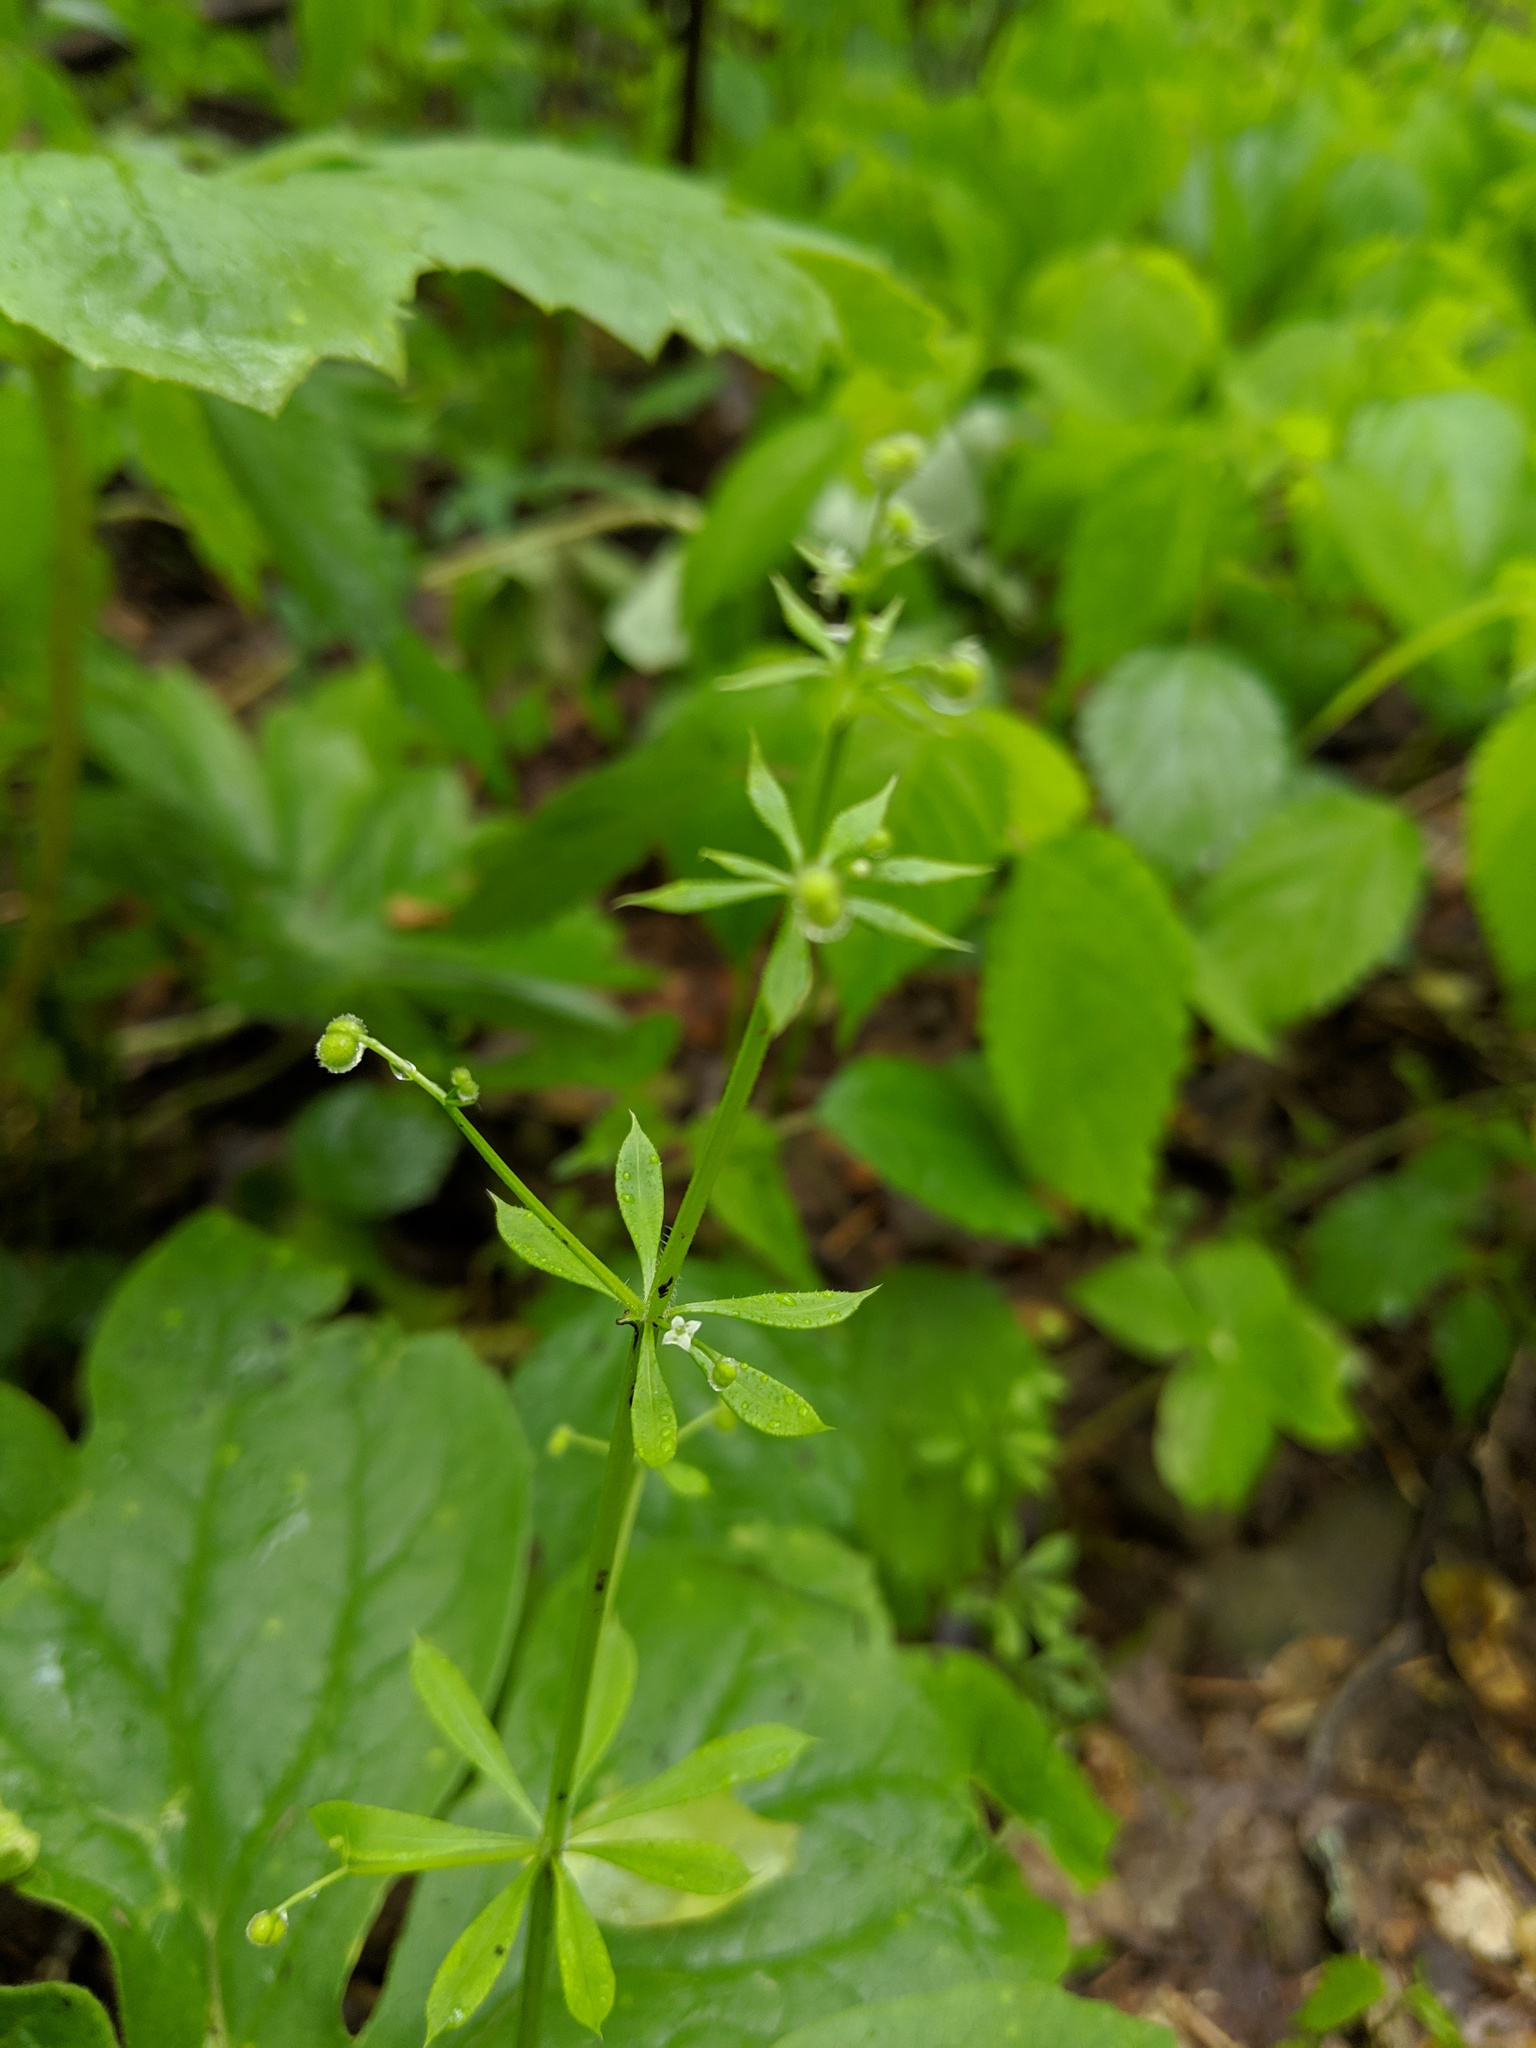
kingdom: Plantae
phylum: Tracheophyta
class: Magnoliopsida
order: Gentianales
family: Rubiaceae
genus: Galium
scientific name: Galium aparine
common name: Cleavers
